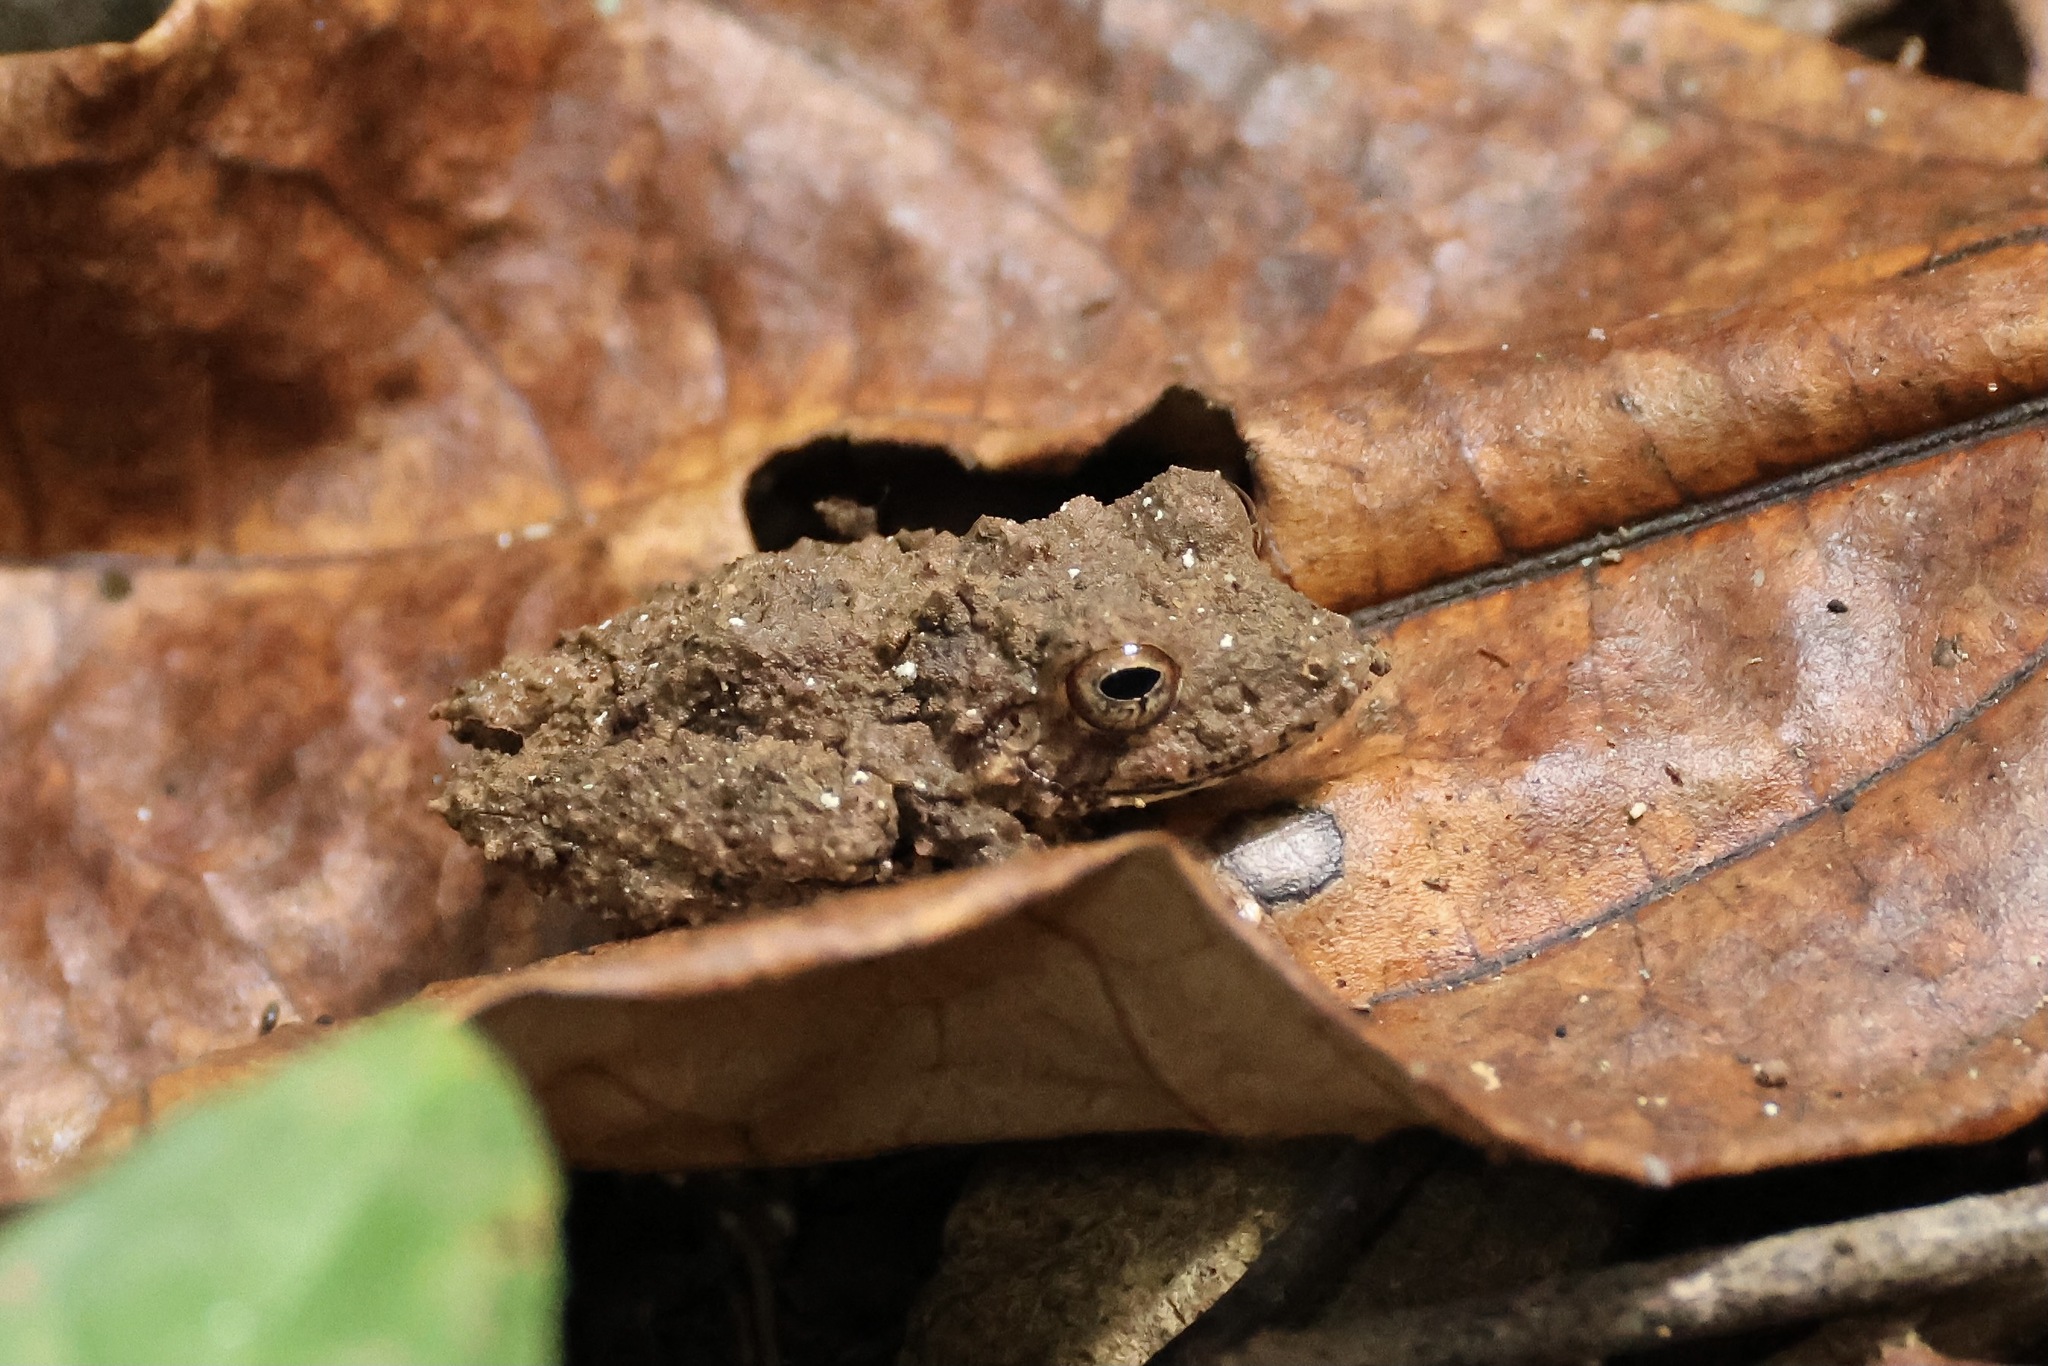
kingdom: Animalia
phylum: Chordata
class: Amphibia
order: Anura
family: Craugastoridae
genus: Pristimantis
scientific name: Pristimantis cerasinus
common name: Limon robber frog
